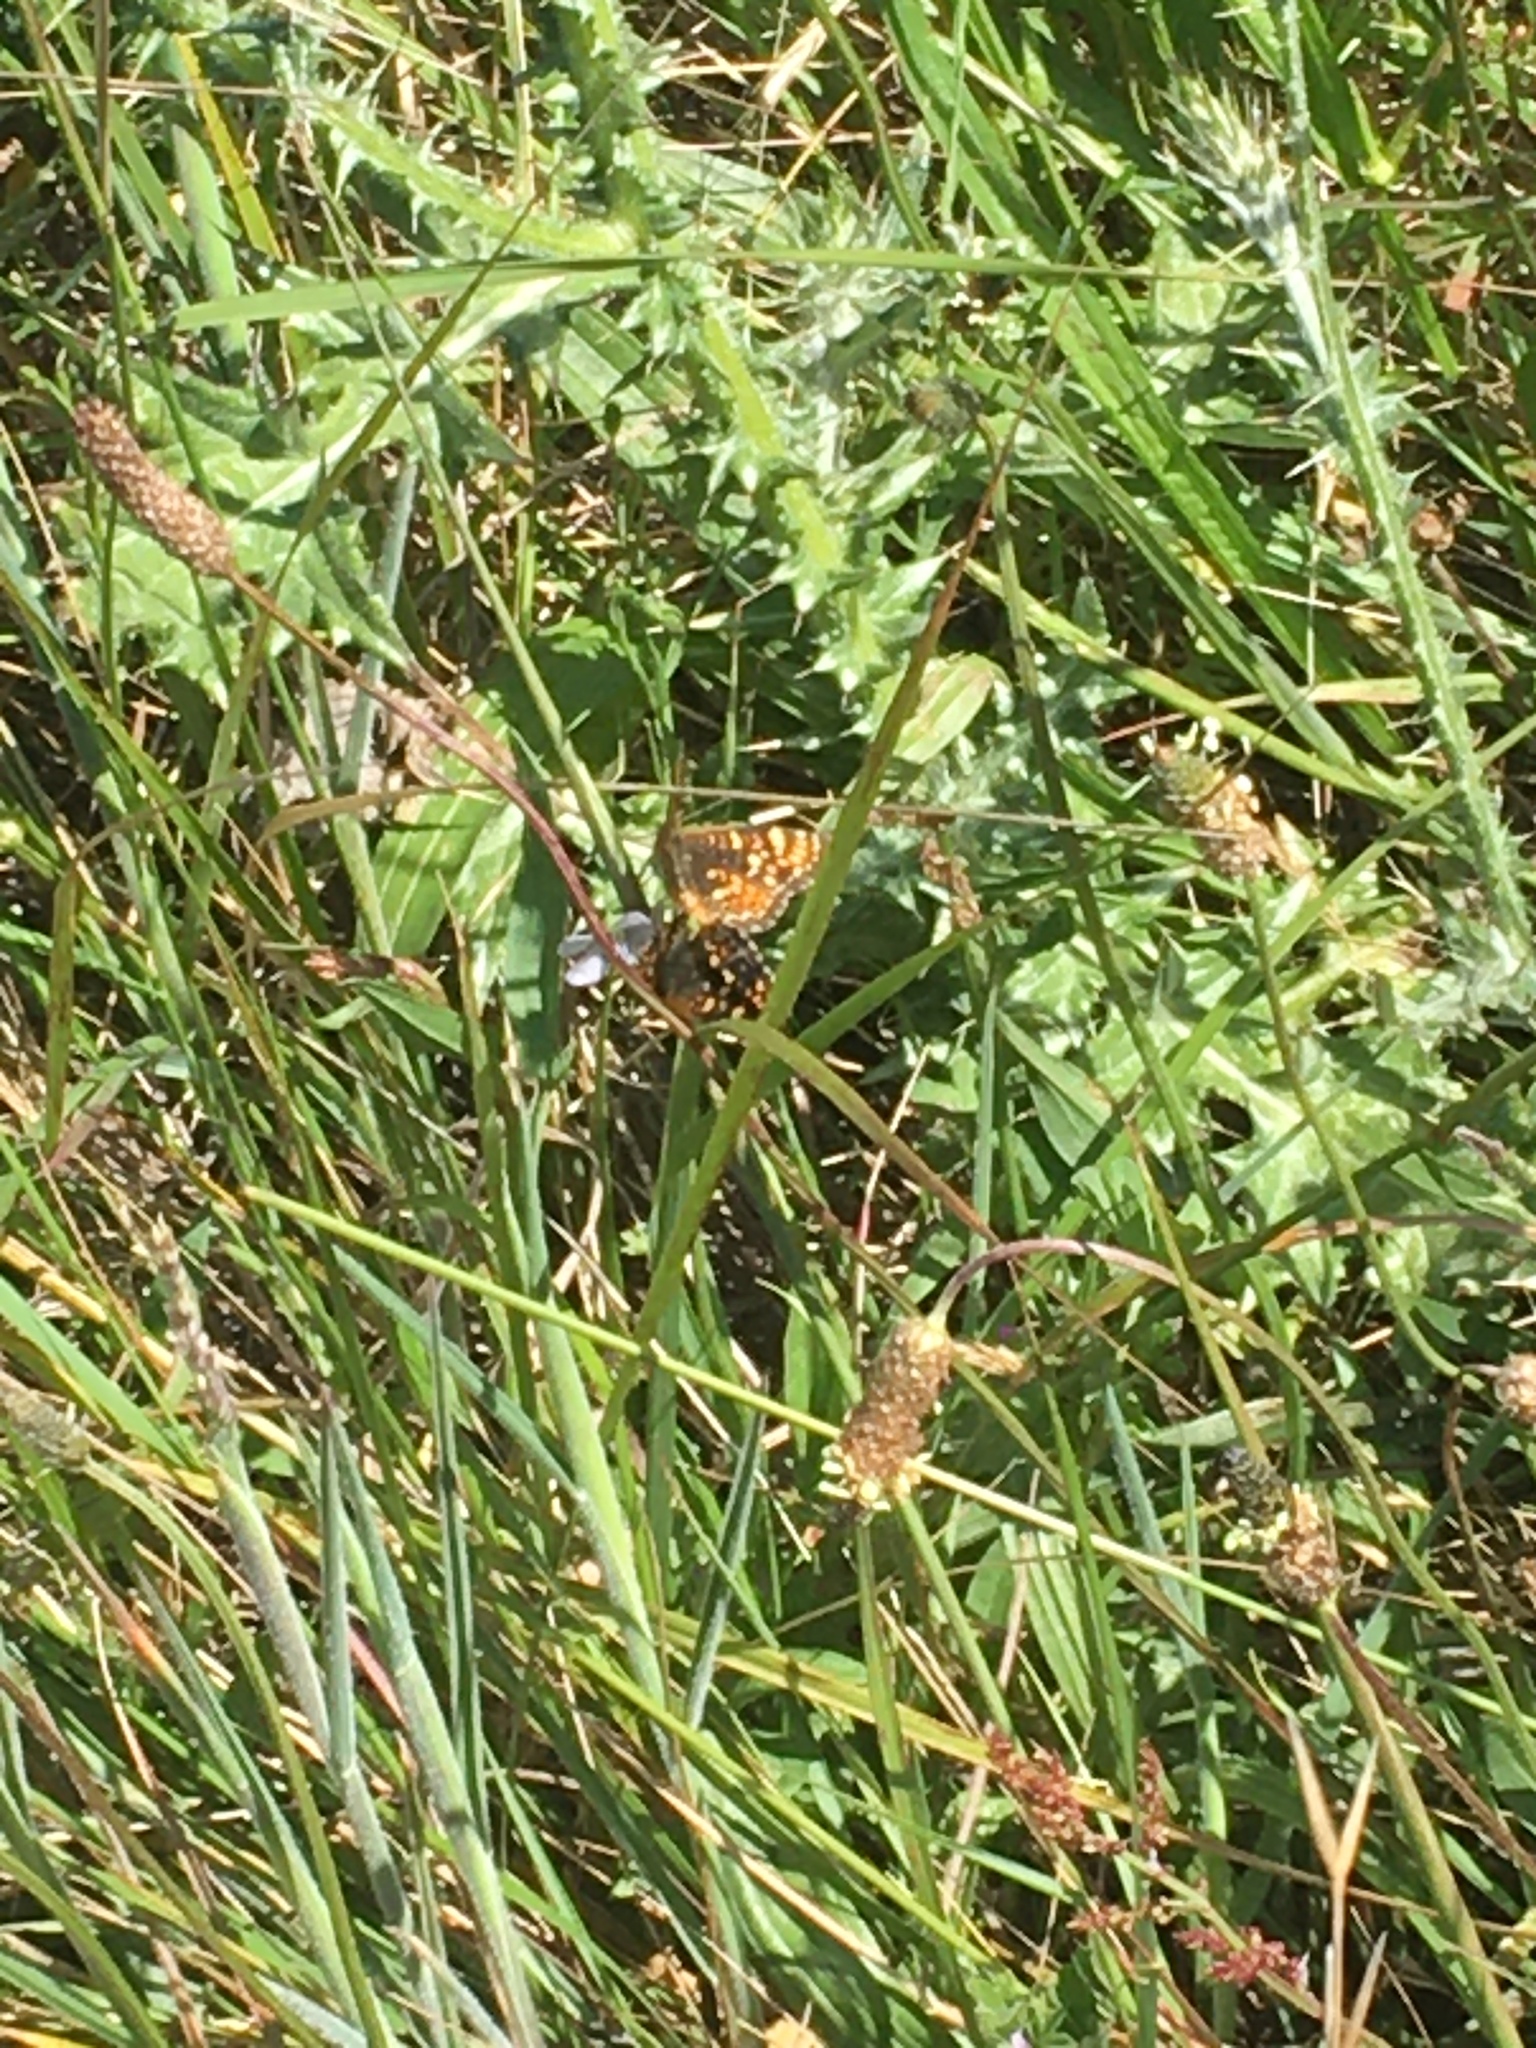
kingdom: Animalia
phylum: Arthropoda
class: Insecta
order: Lepidoptera
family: Nymphalidae
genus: Phyciodes
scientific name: Phyciodes tharos
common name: Pearl crescent
